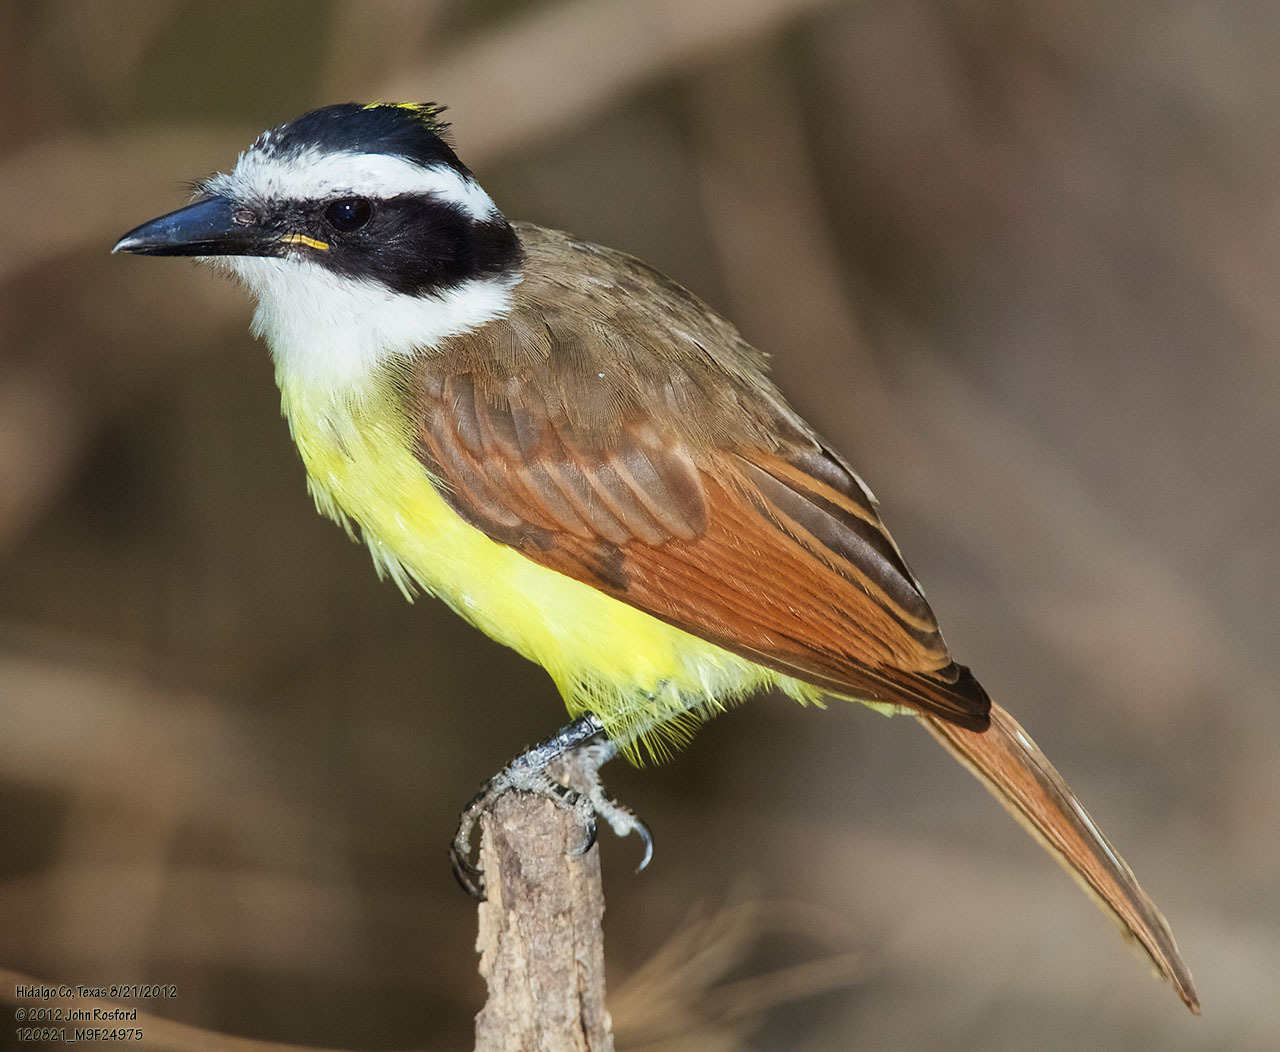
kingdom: Animalia
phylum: Chordata
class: Aves
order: Passeriformes
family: Tyrannidae
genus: Pitangus
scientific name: Pitangus sulphuratus
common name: Great kiskadee
